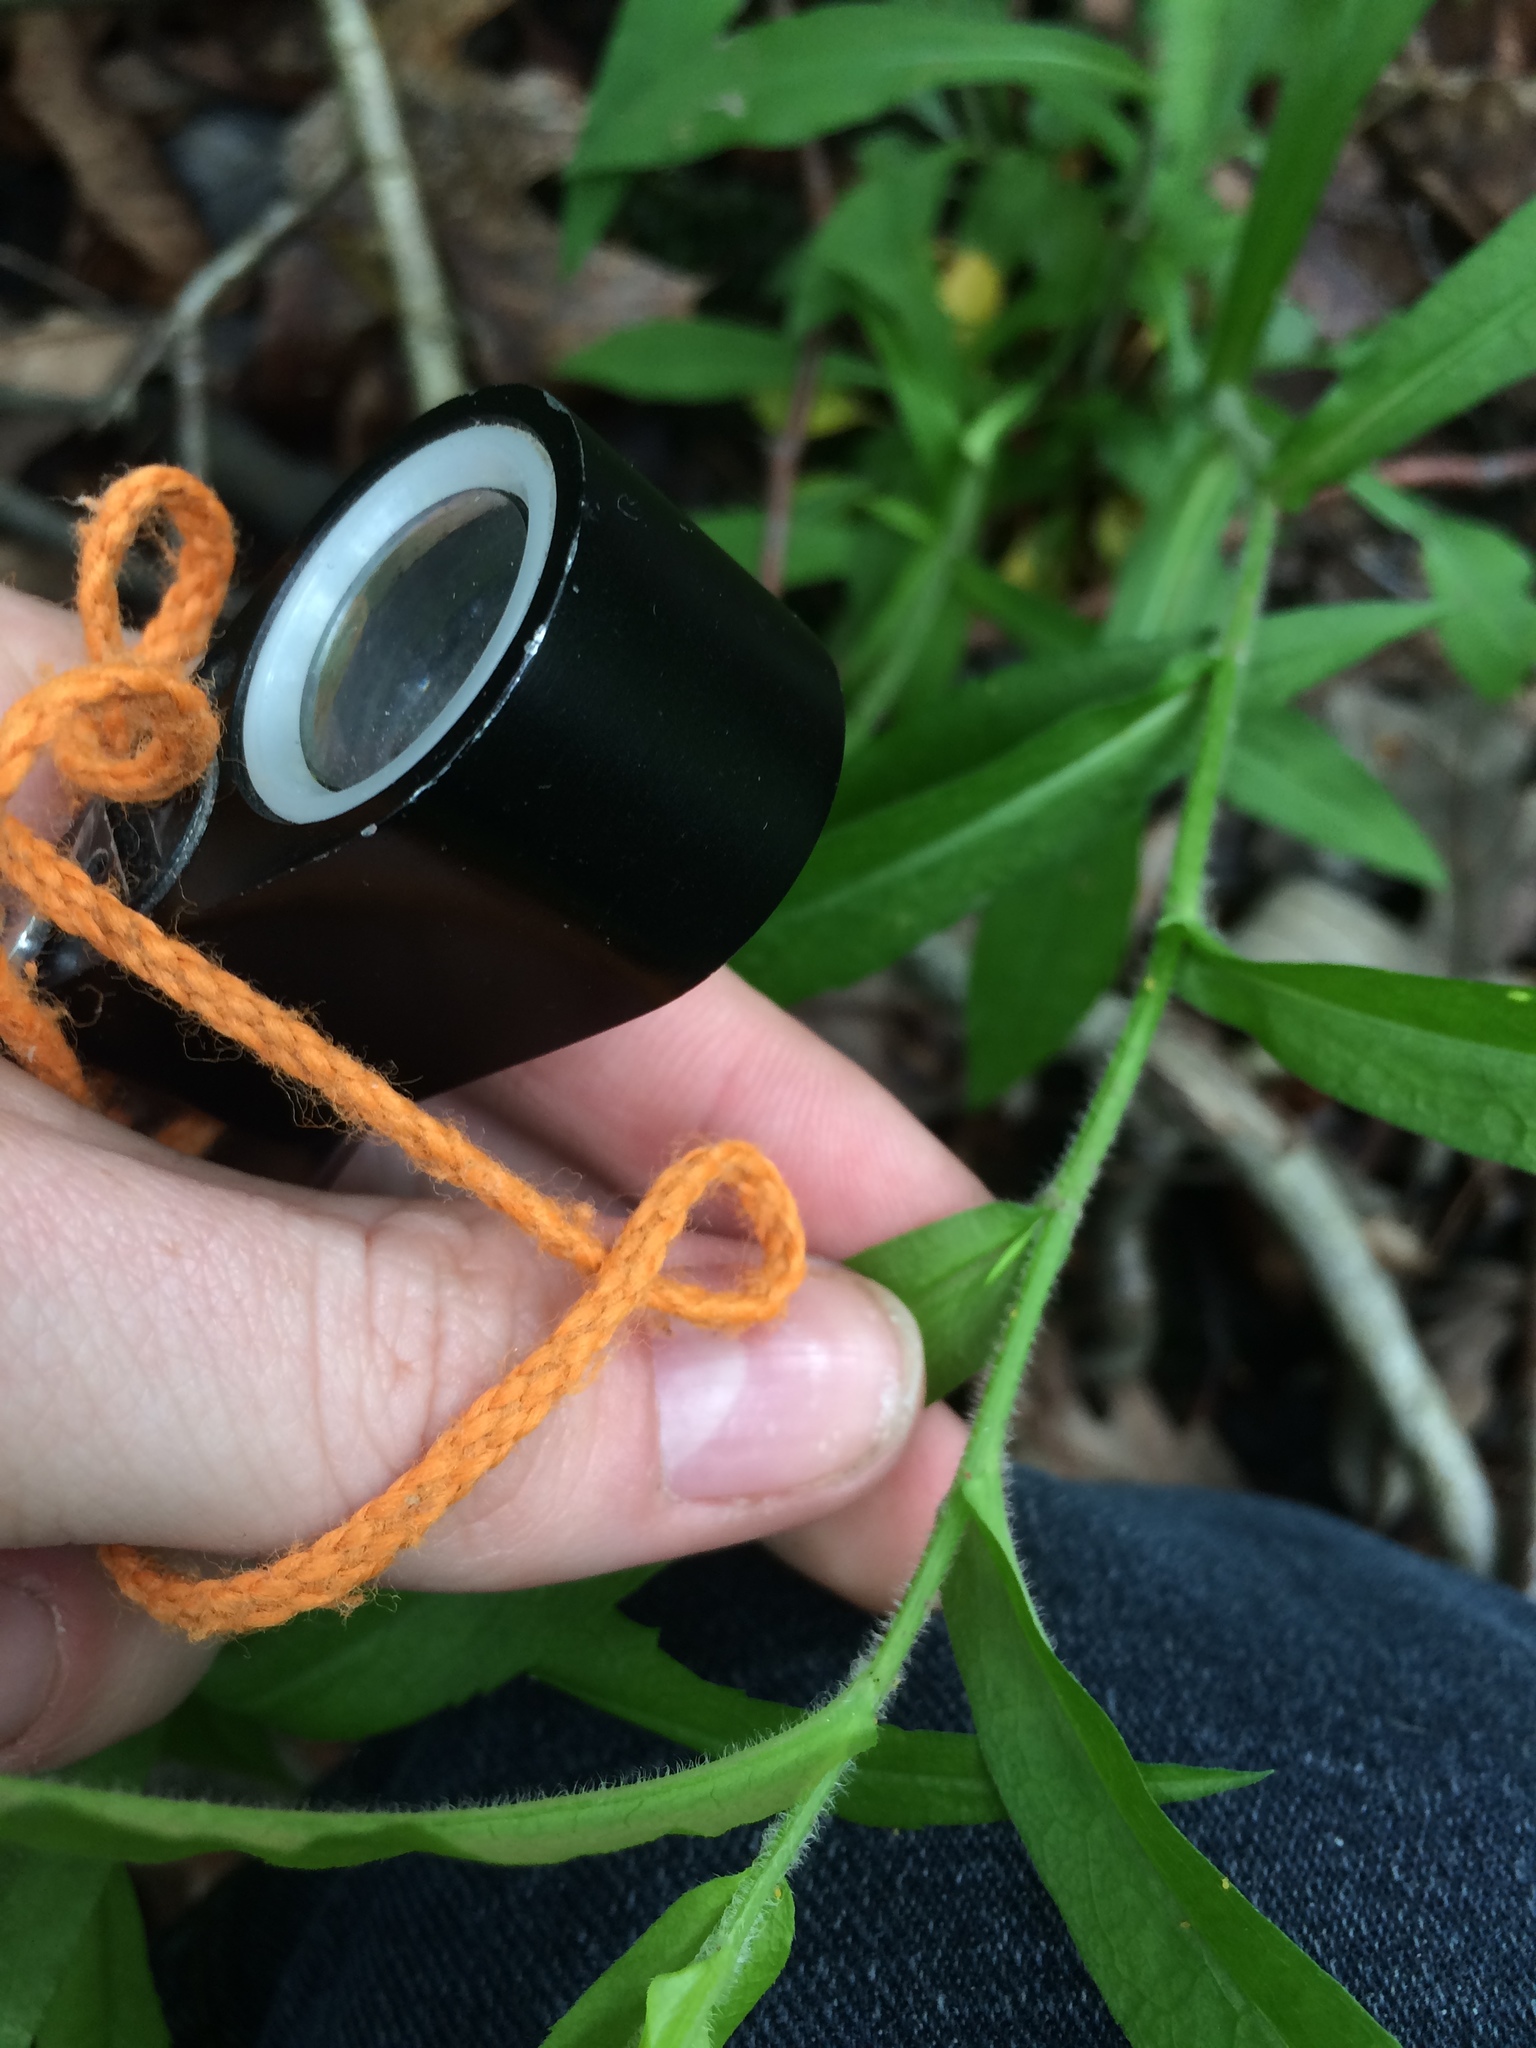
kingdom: Plantae
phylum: Tracheophyta
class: Magnoliopsida
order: Asterales
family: Asteraceae
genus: Symphyotrichum
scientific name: Symphyotrichum lateriflorum
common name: Calico aster
